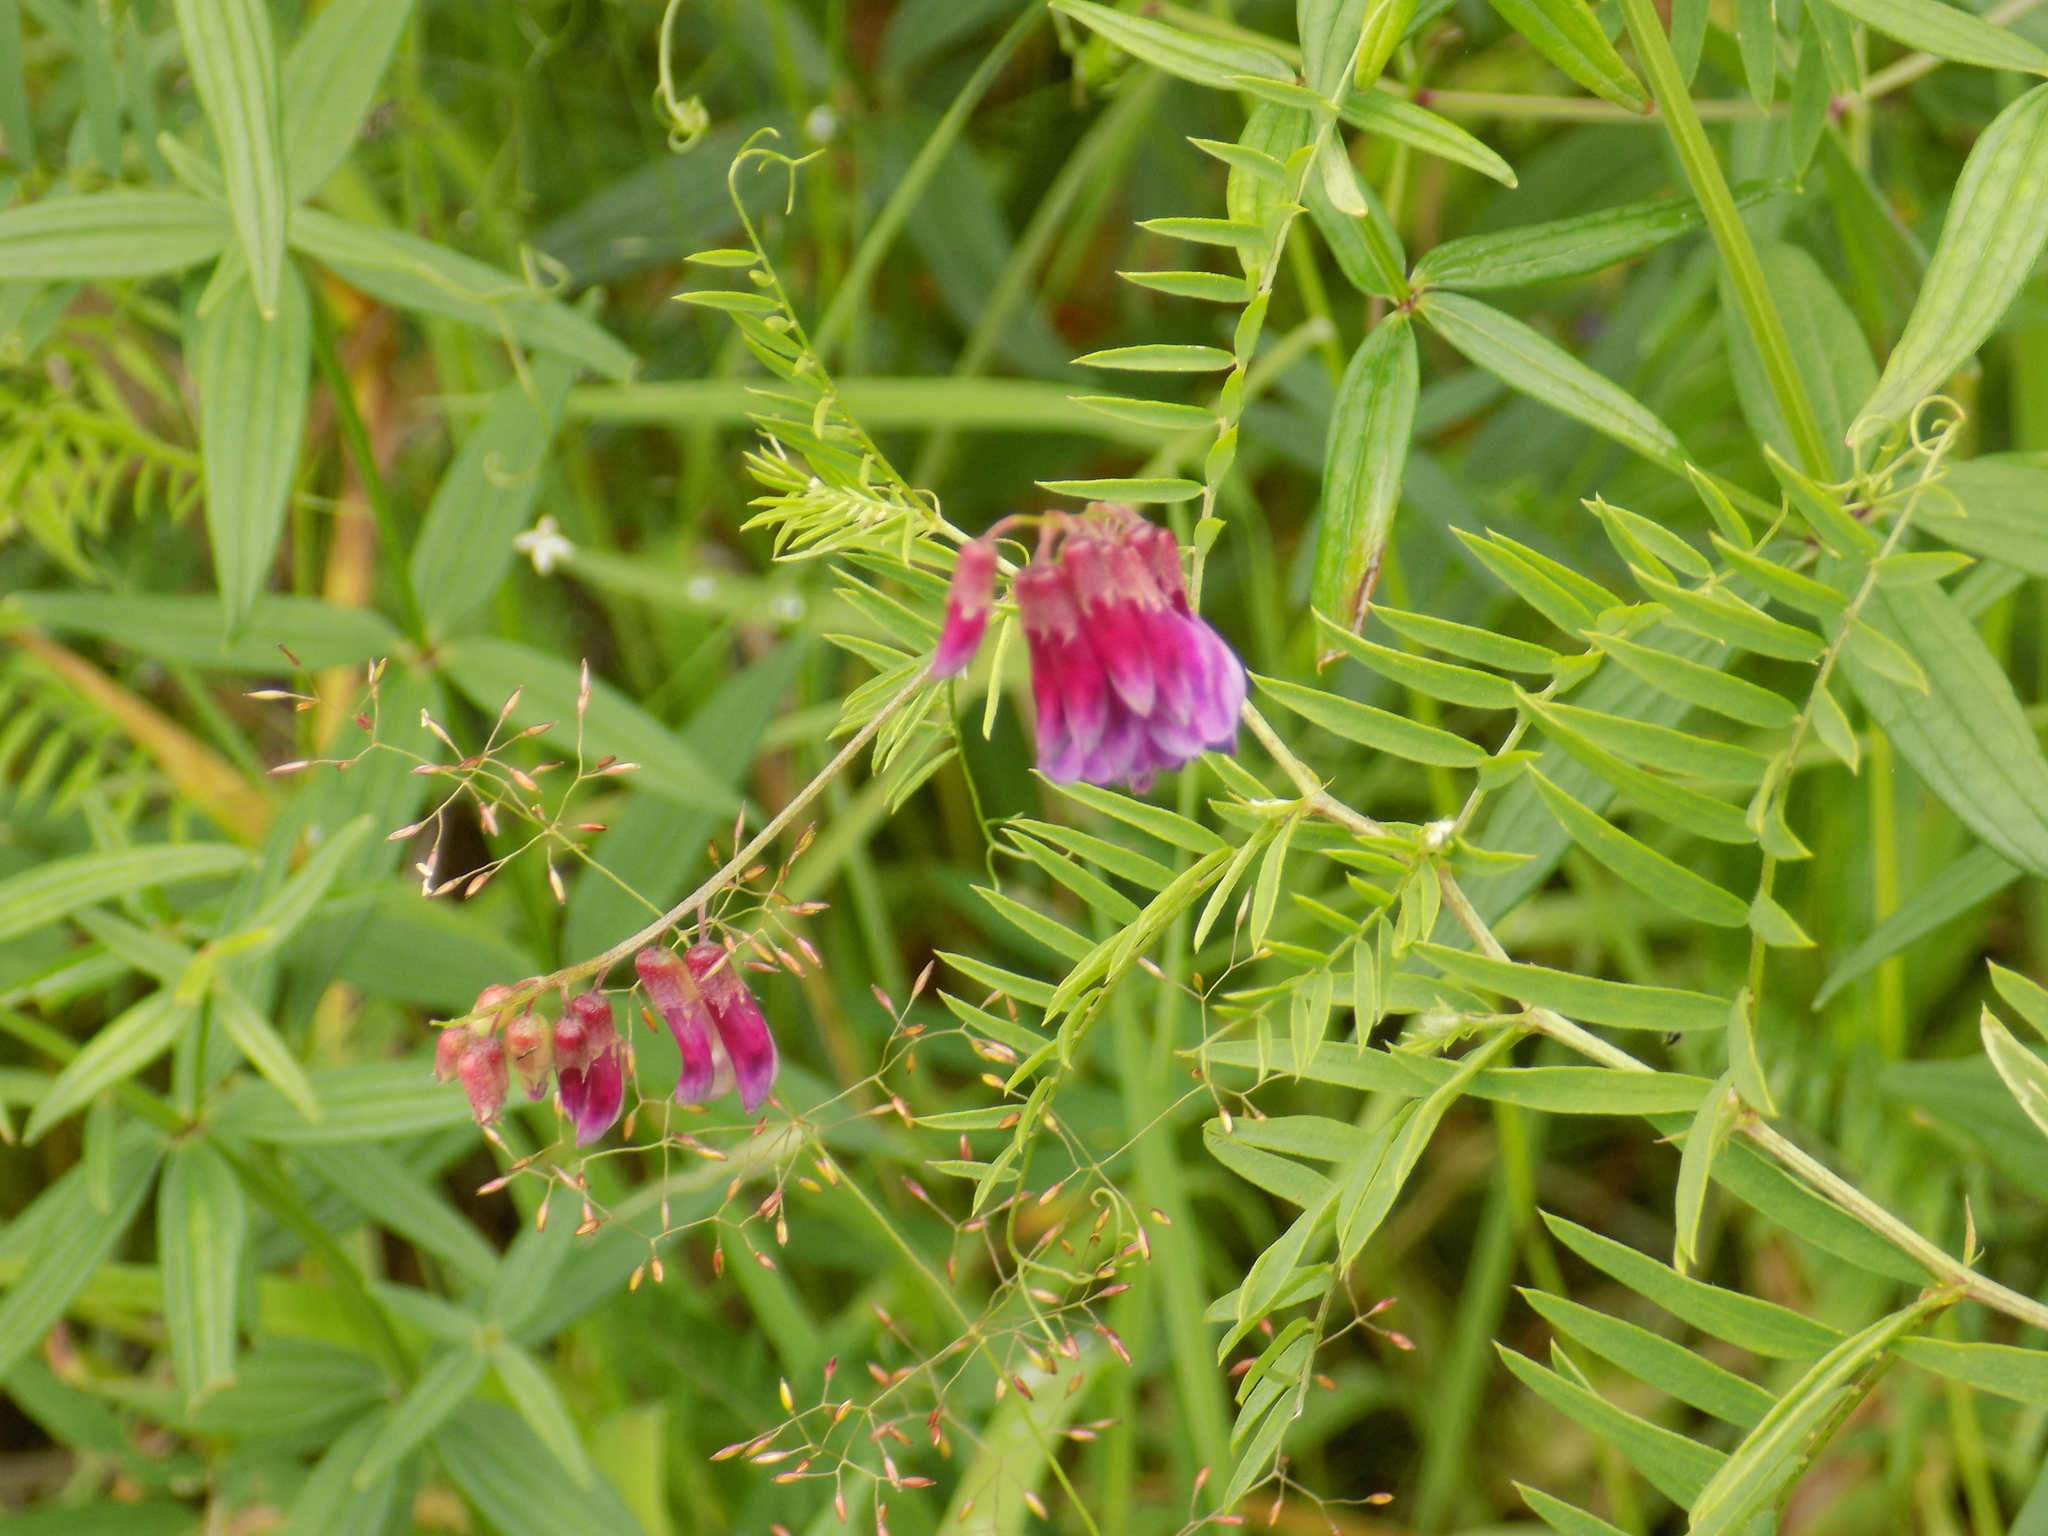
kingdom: Plantae
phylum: Tracheophyta
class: Magnoliopsida
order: Fabales
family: Fabaceae
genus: Vicia
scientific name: Vicia megalotropis
